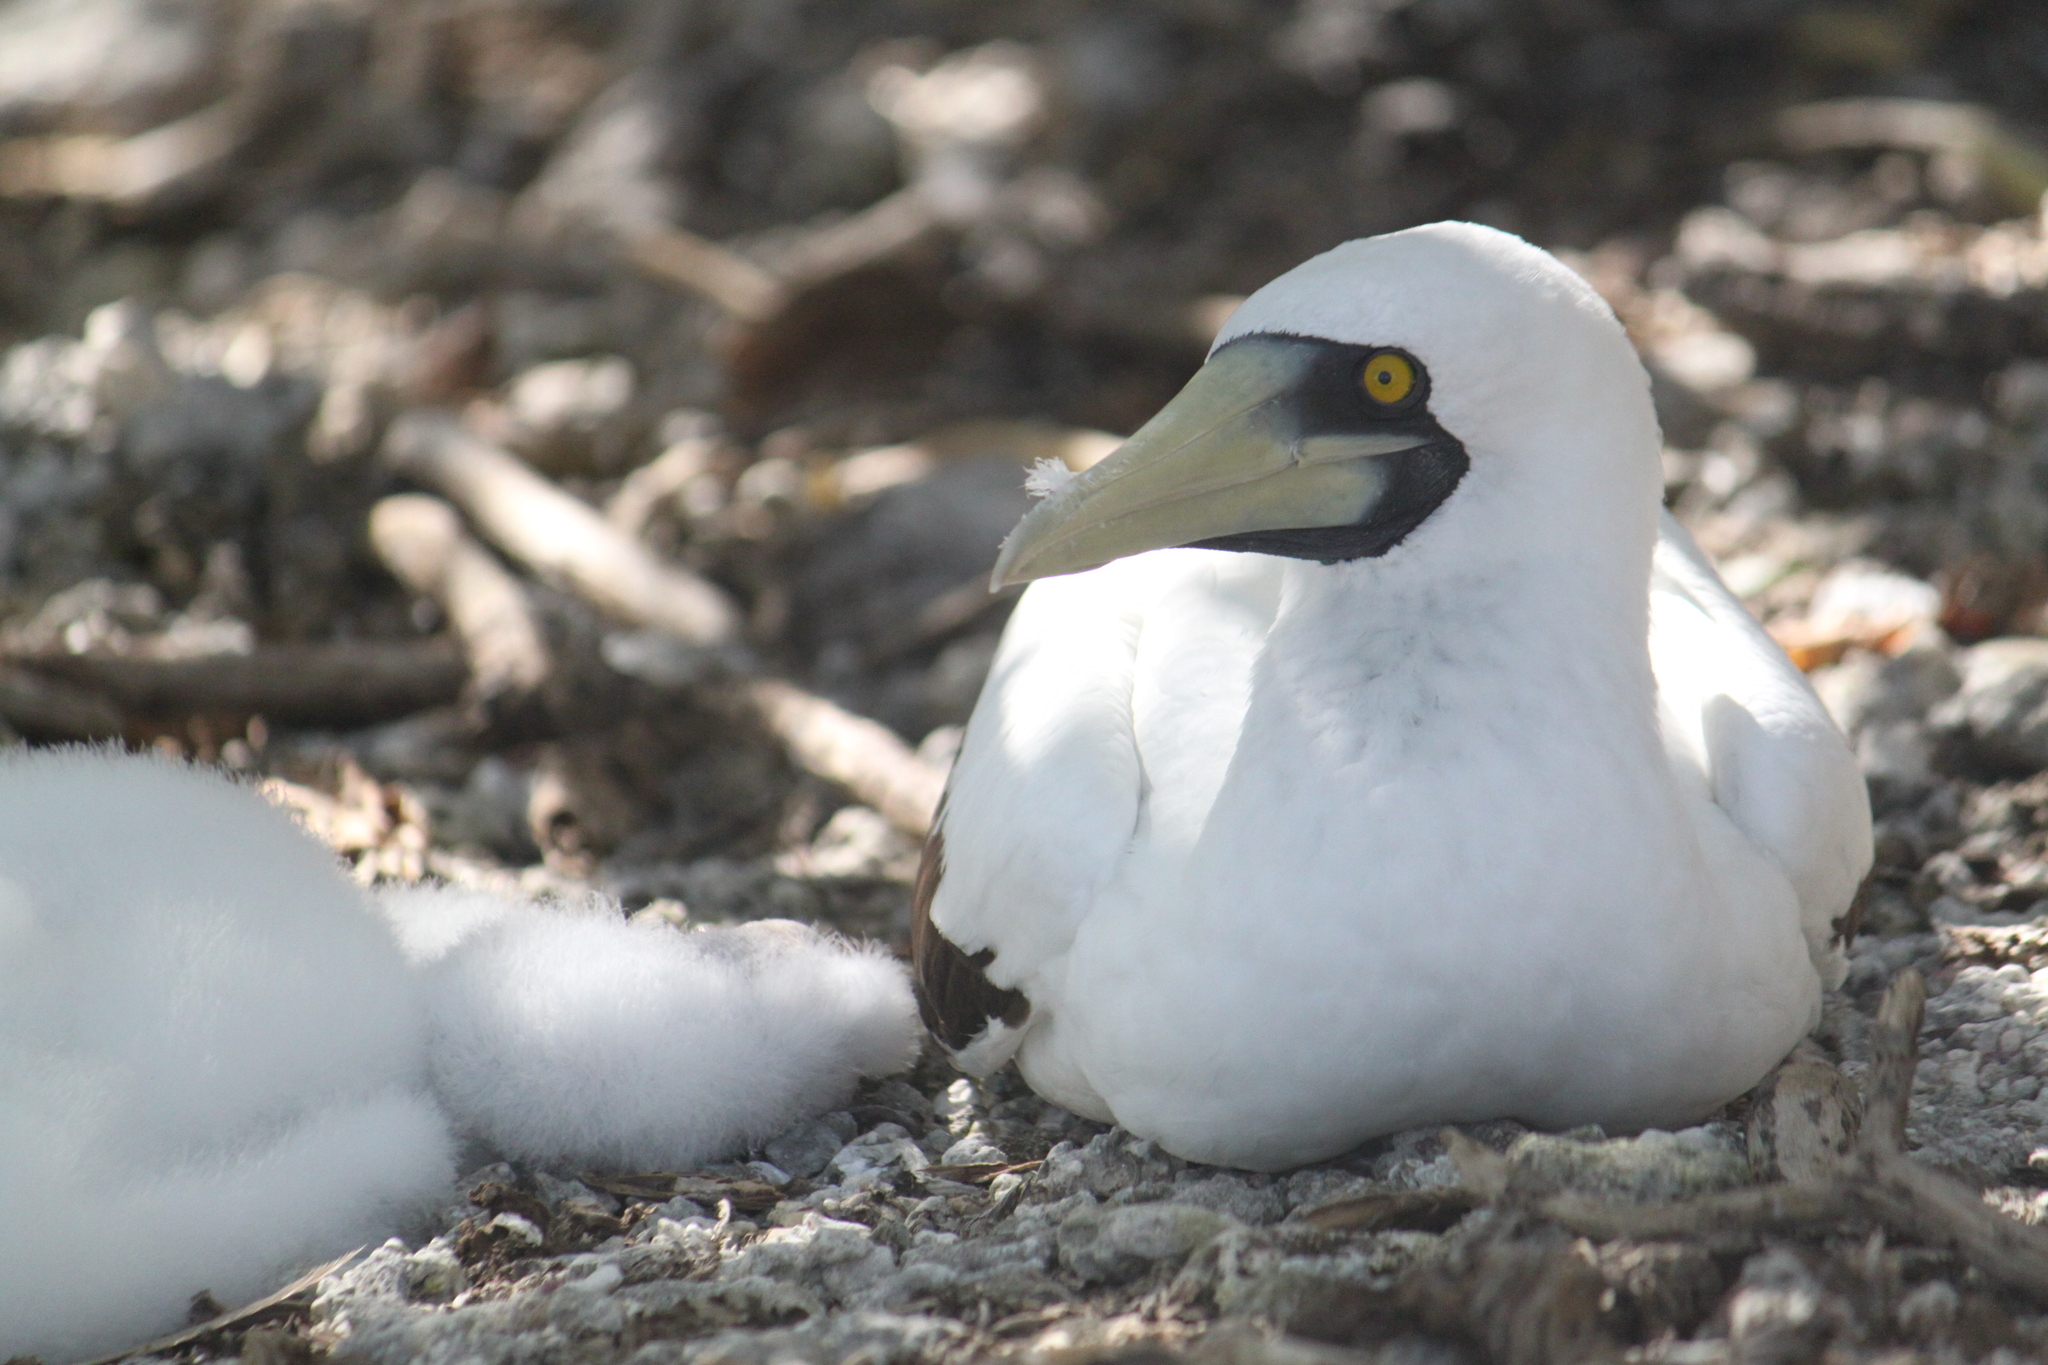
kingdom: Animalia
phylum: Chordata
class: Aves
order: Suliformes
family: Sulidae
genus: Sula
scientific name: Sula dactylatra
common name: Masked booby
